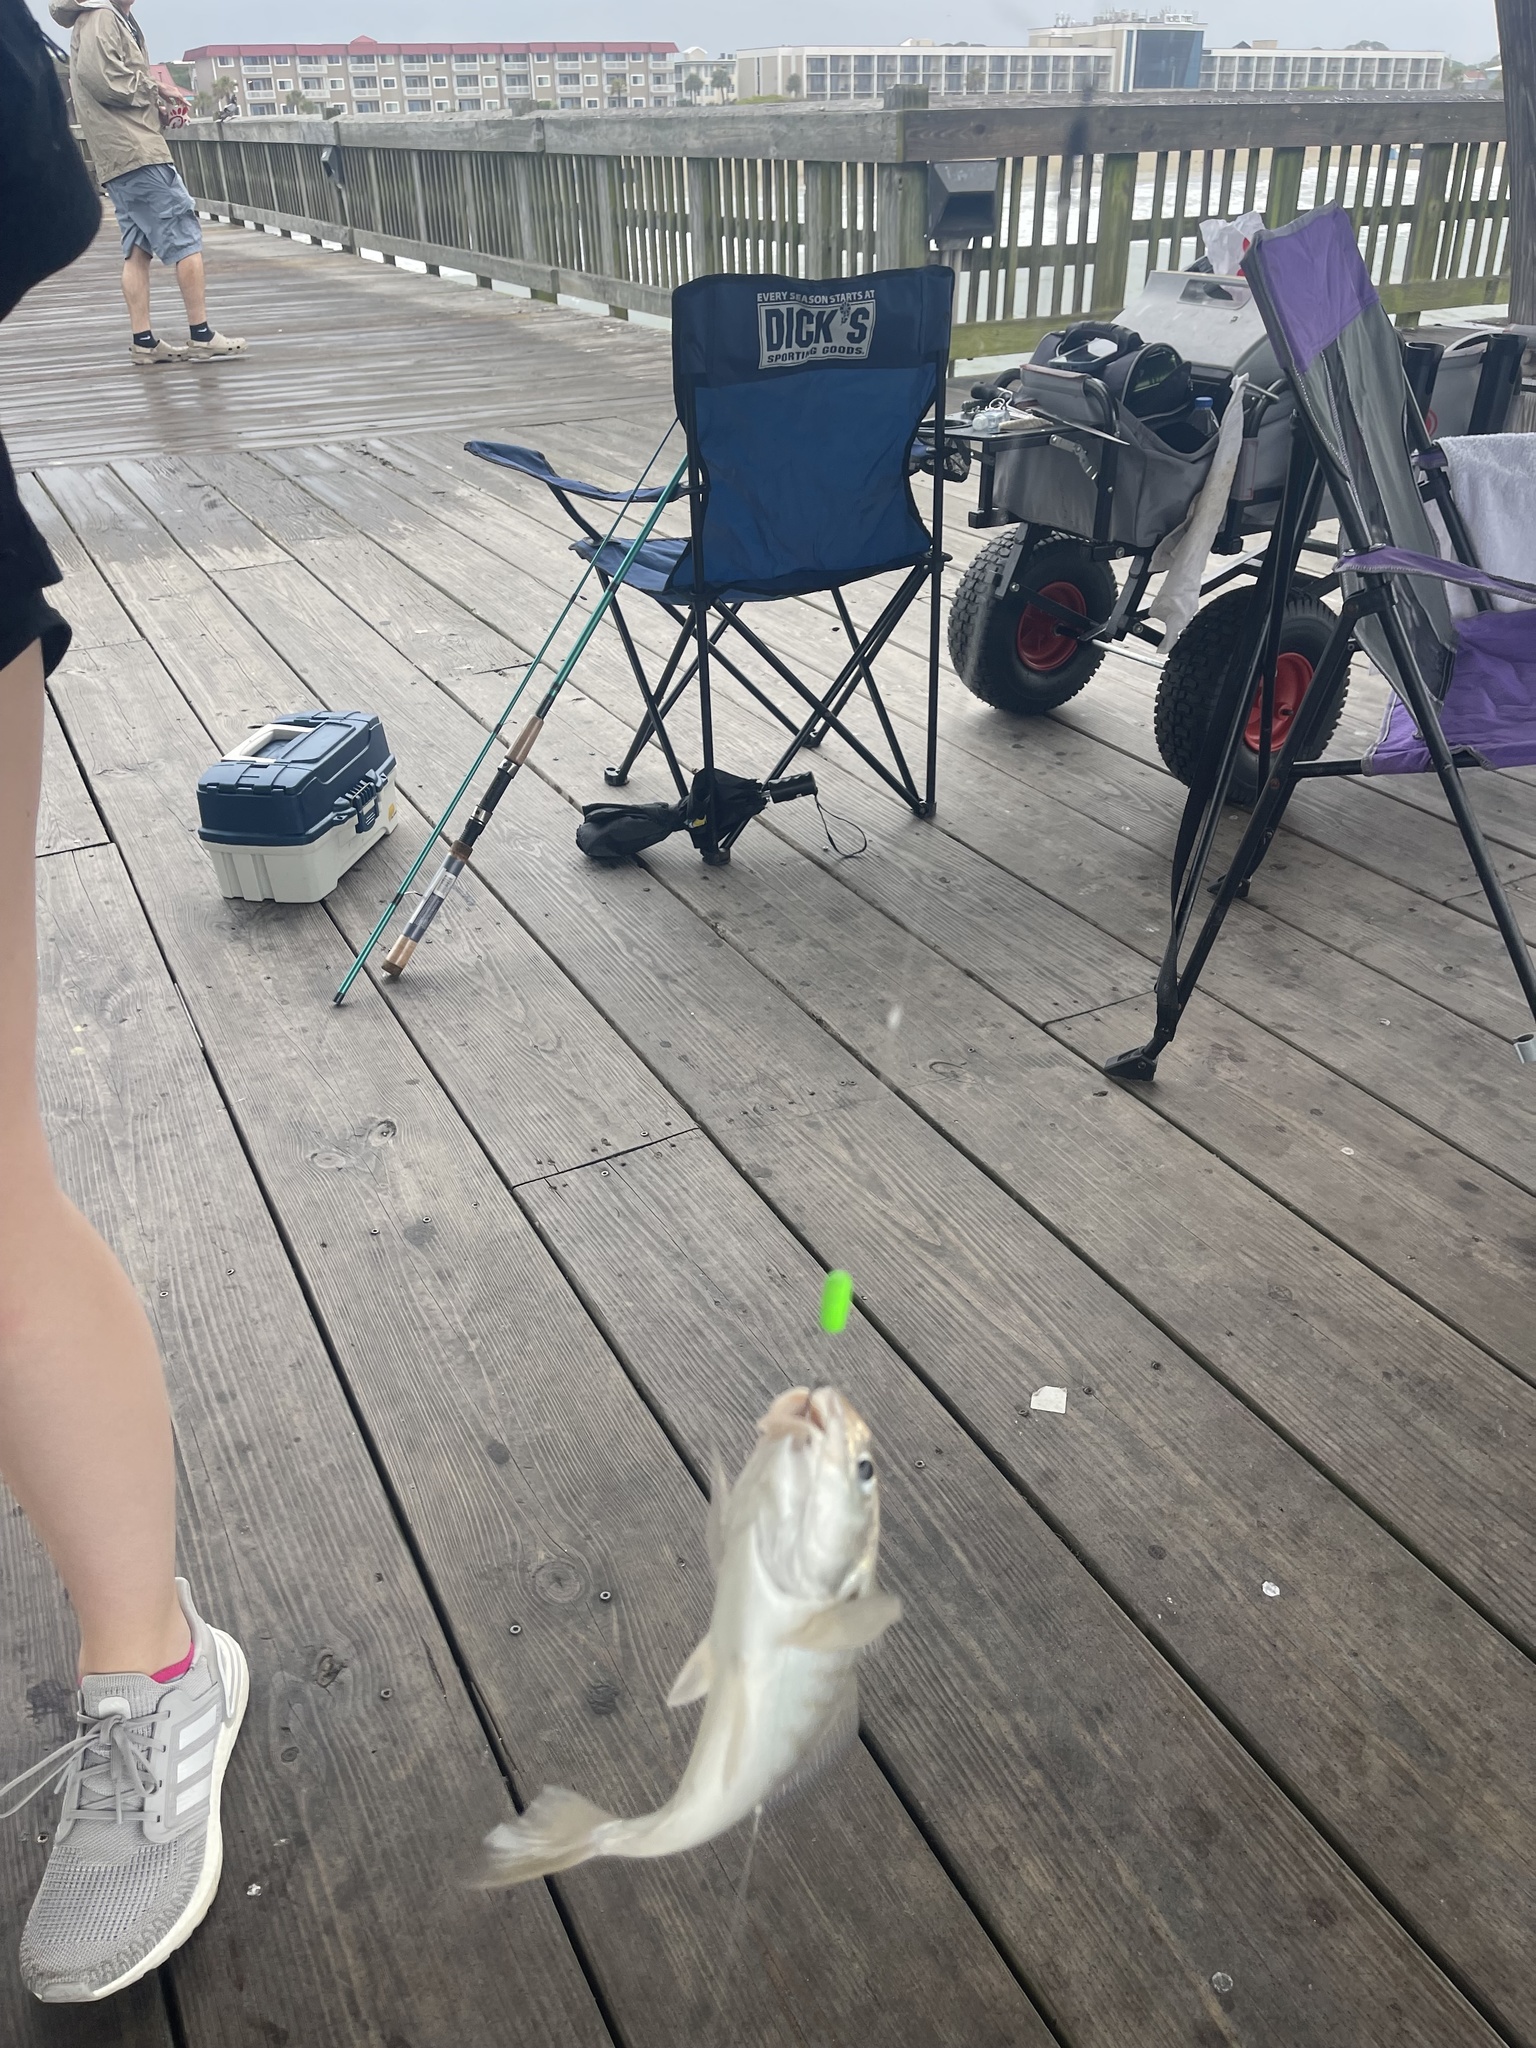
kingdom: Animalia
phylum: Chordata
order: Perciformes
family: Sciaenidae
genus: Leiostomus
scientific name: Leiostomus xanthurus
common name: Spot
